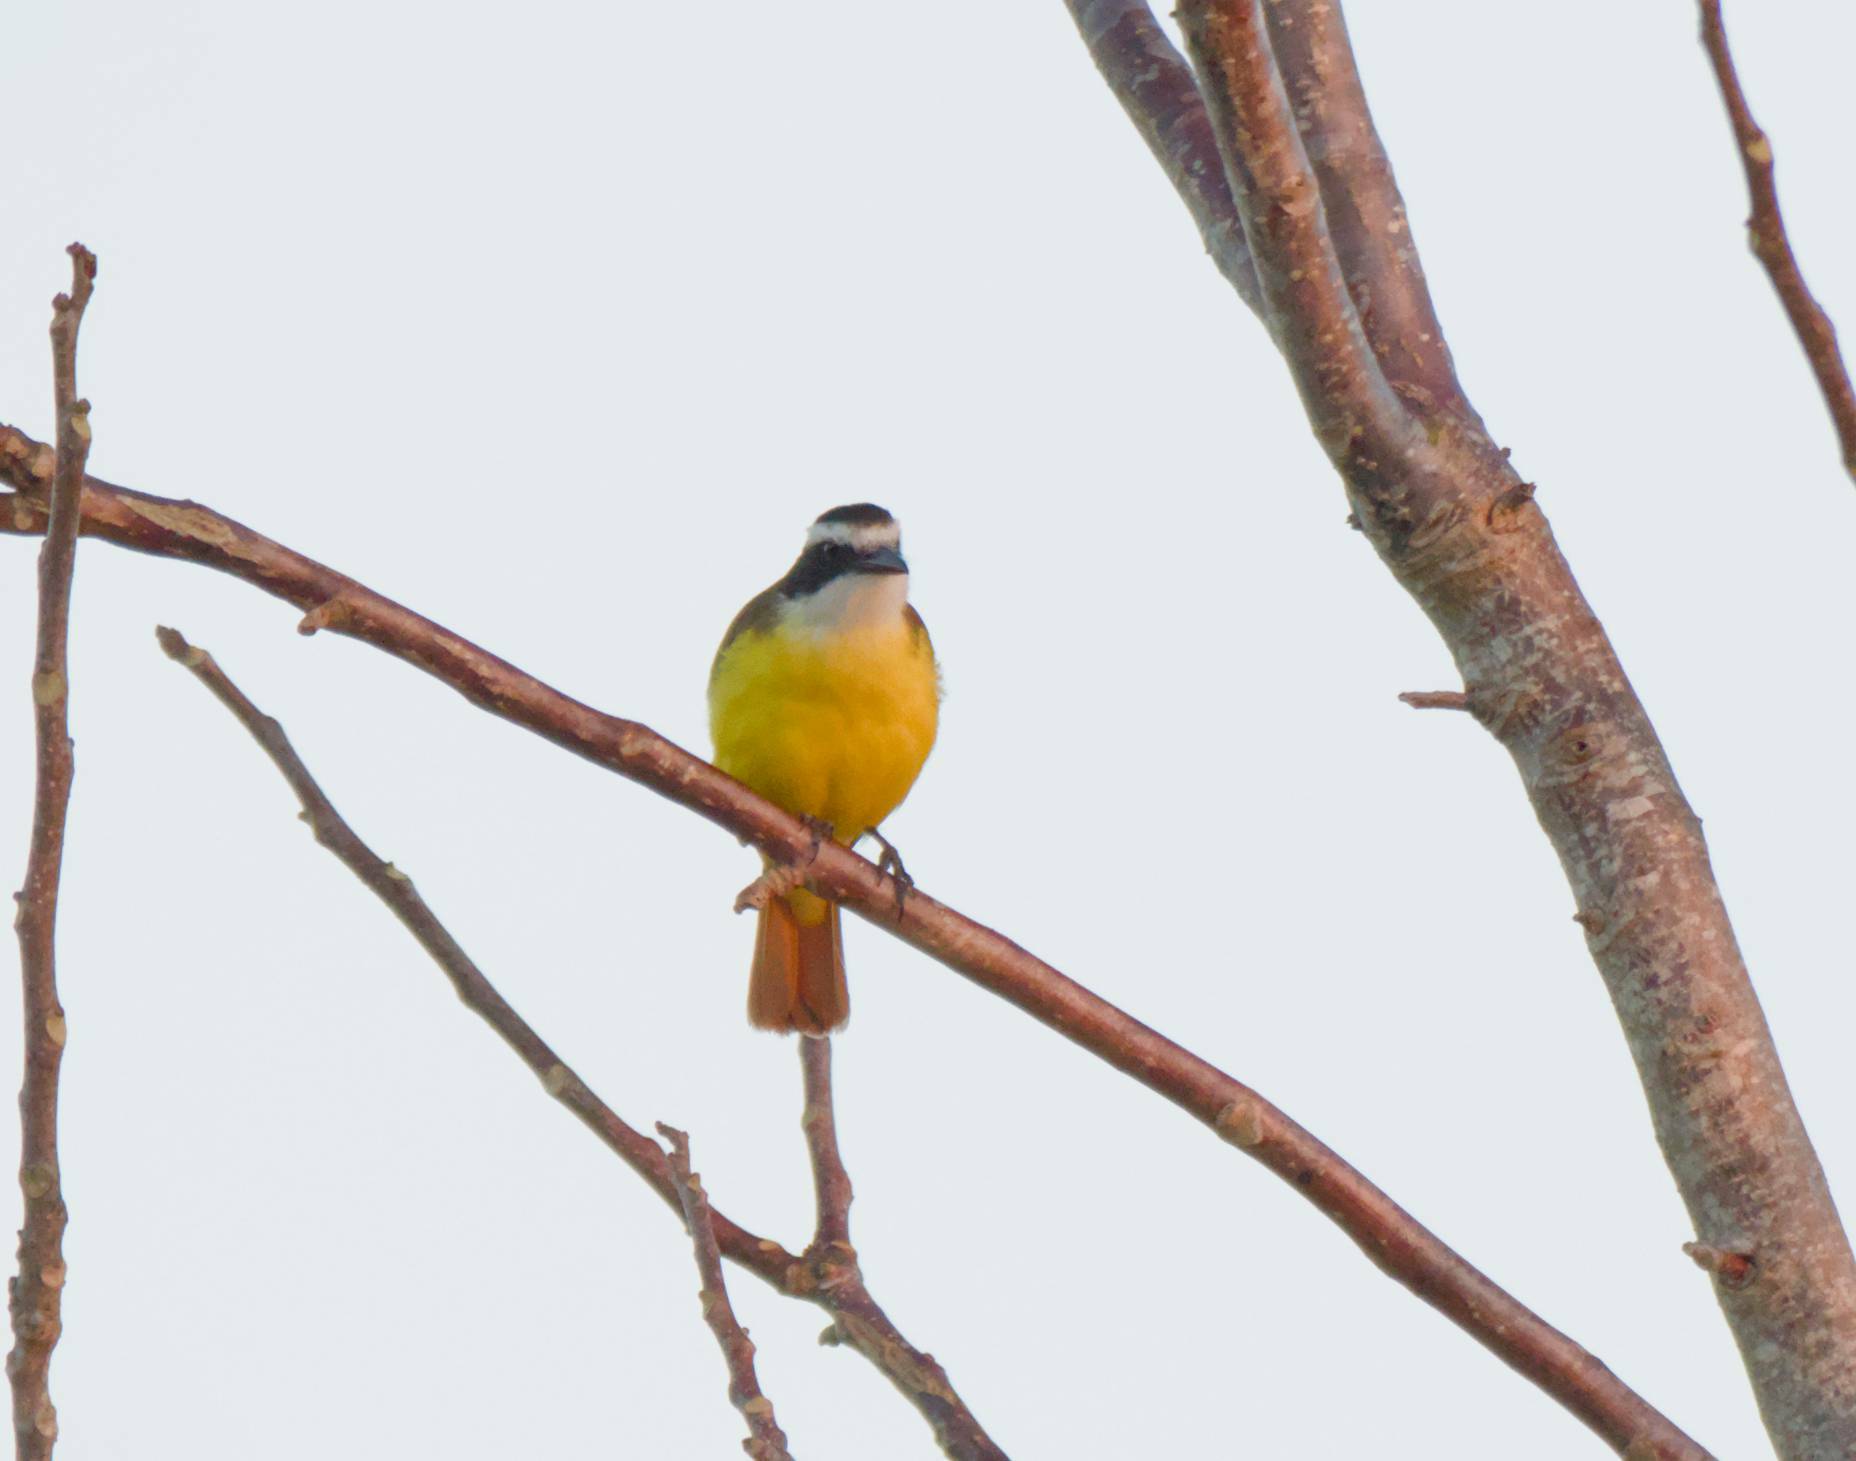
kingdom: Animalia
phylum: Chordata
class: Aves
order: Passeriformes
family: Tyrannidae
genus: Pitangus
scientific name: Pitangus sulphuratus
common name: Great kiskadee
